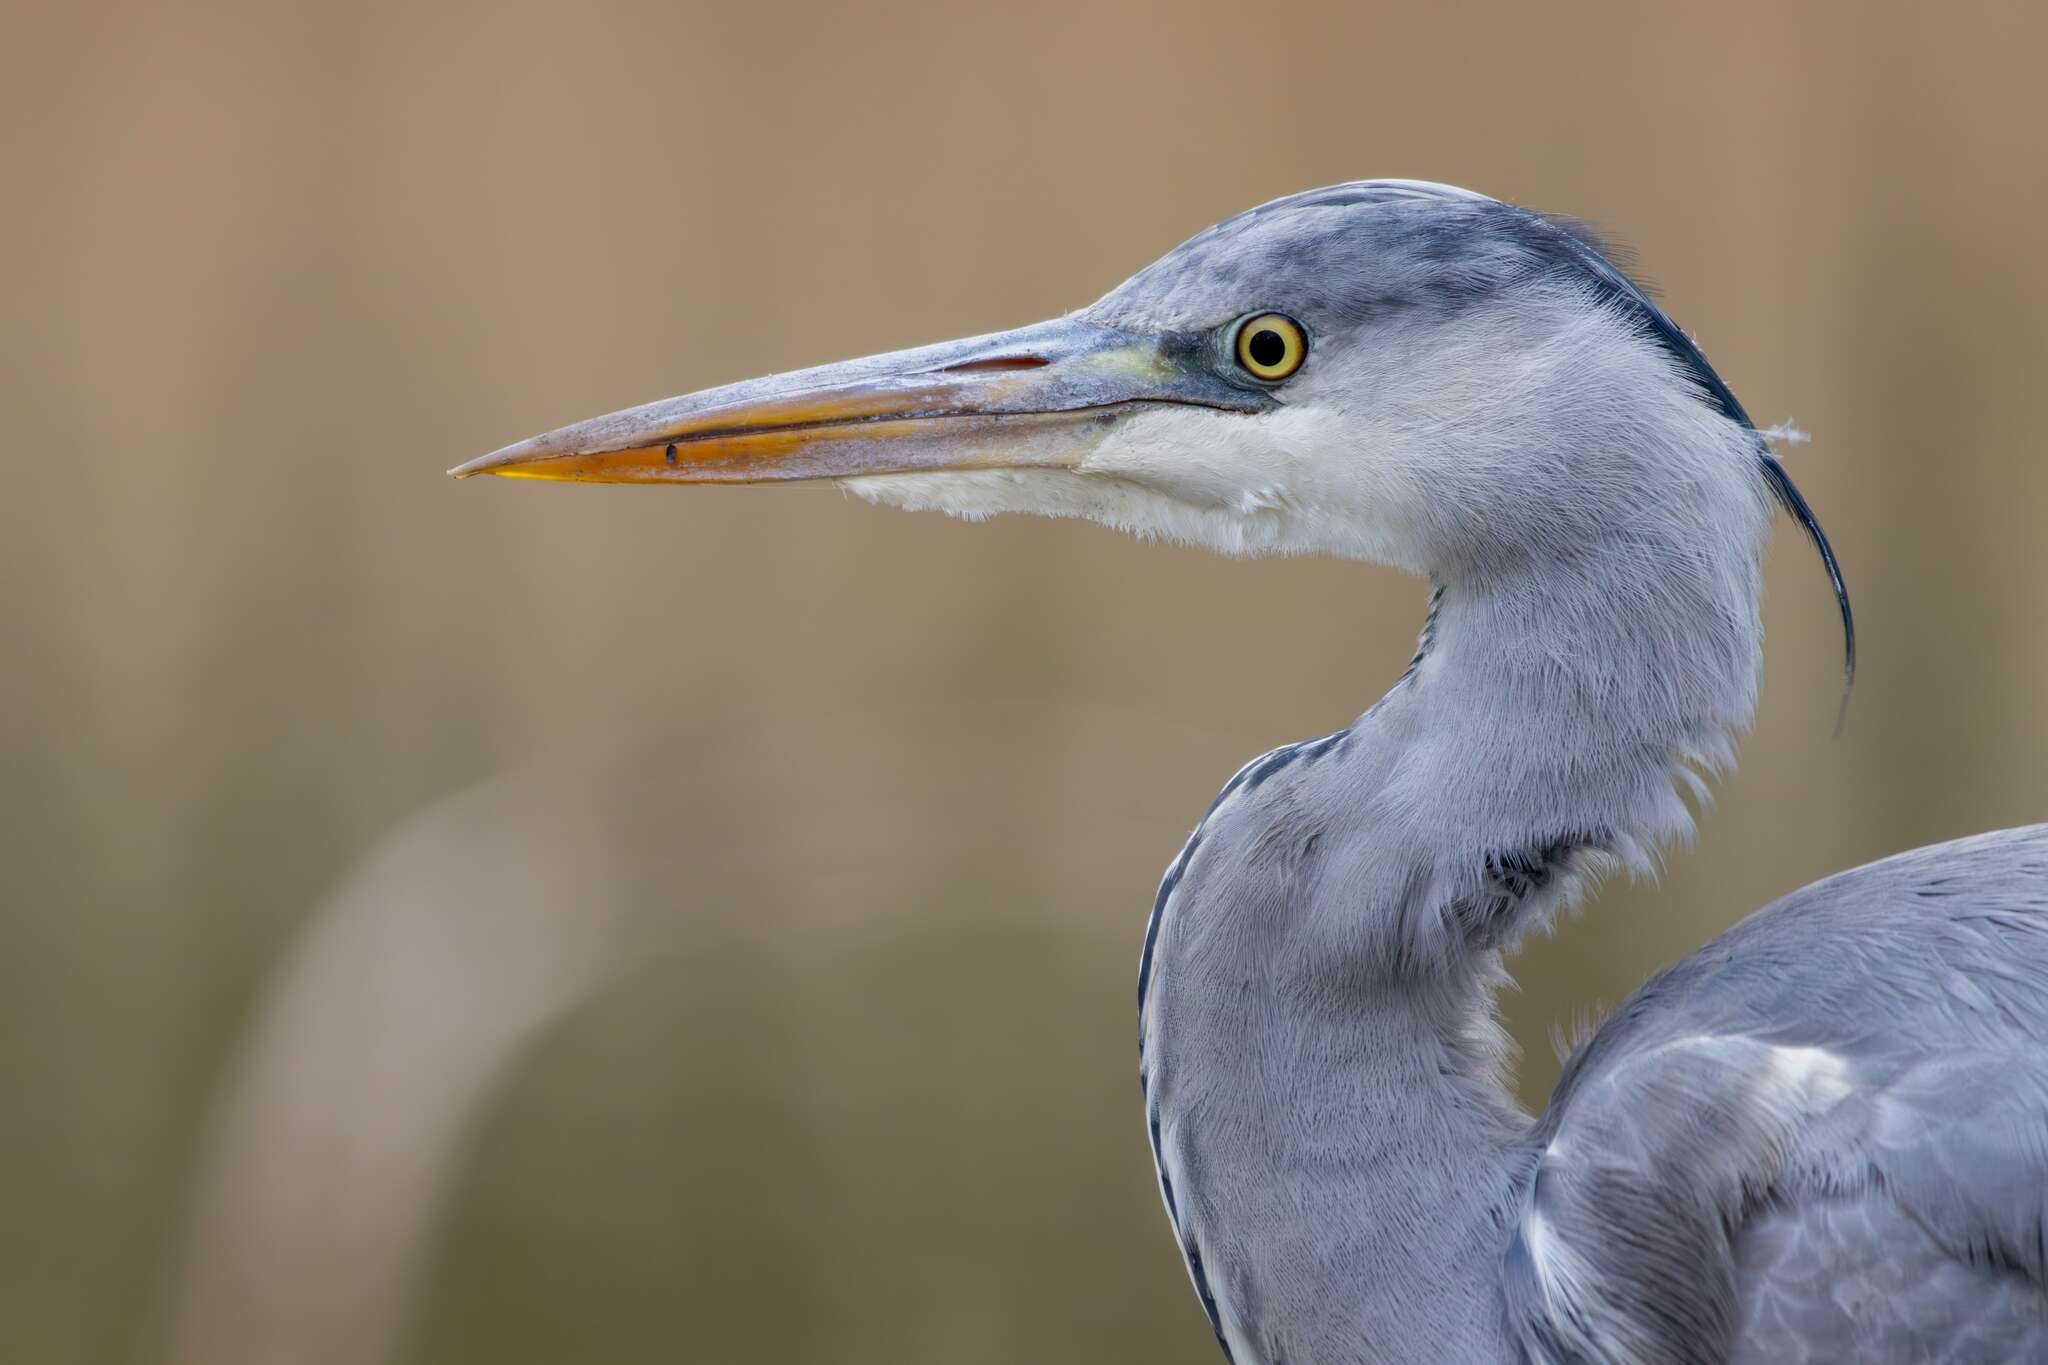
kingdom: Animalia
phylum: Chordata
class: Aves
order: Pelecaniformes
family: Ardeidae
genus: Ardea
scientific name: Ardea cinerea
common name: Grey heron
